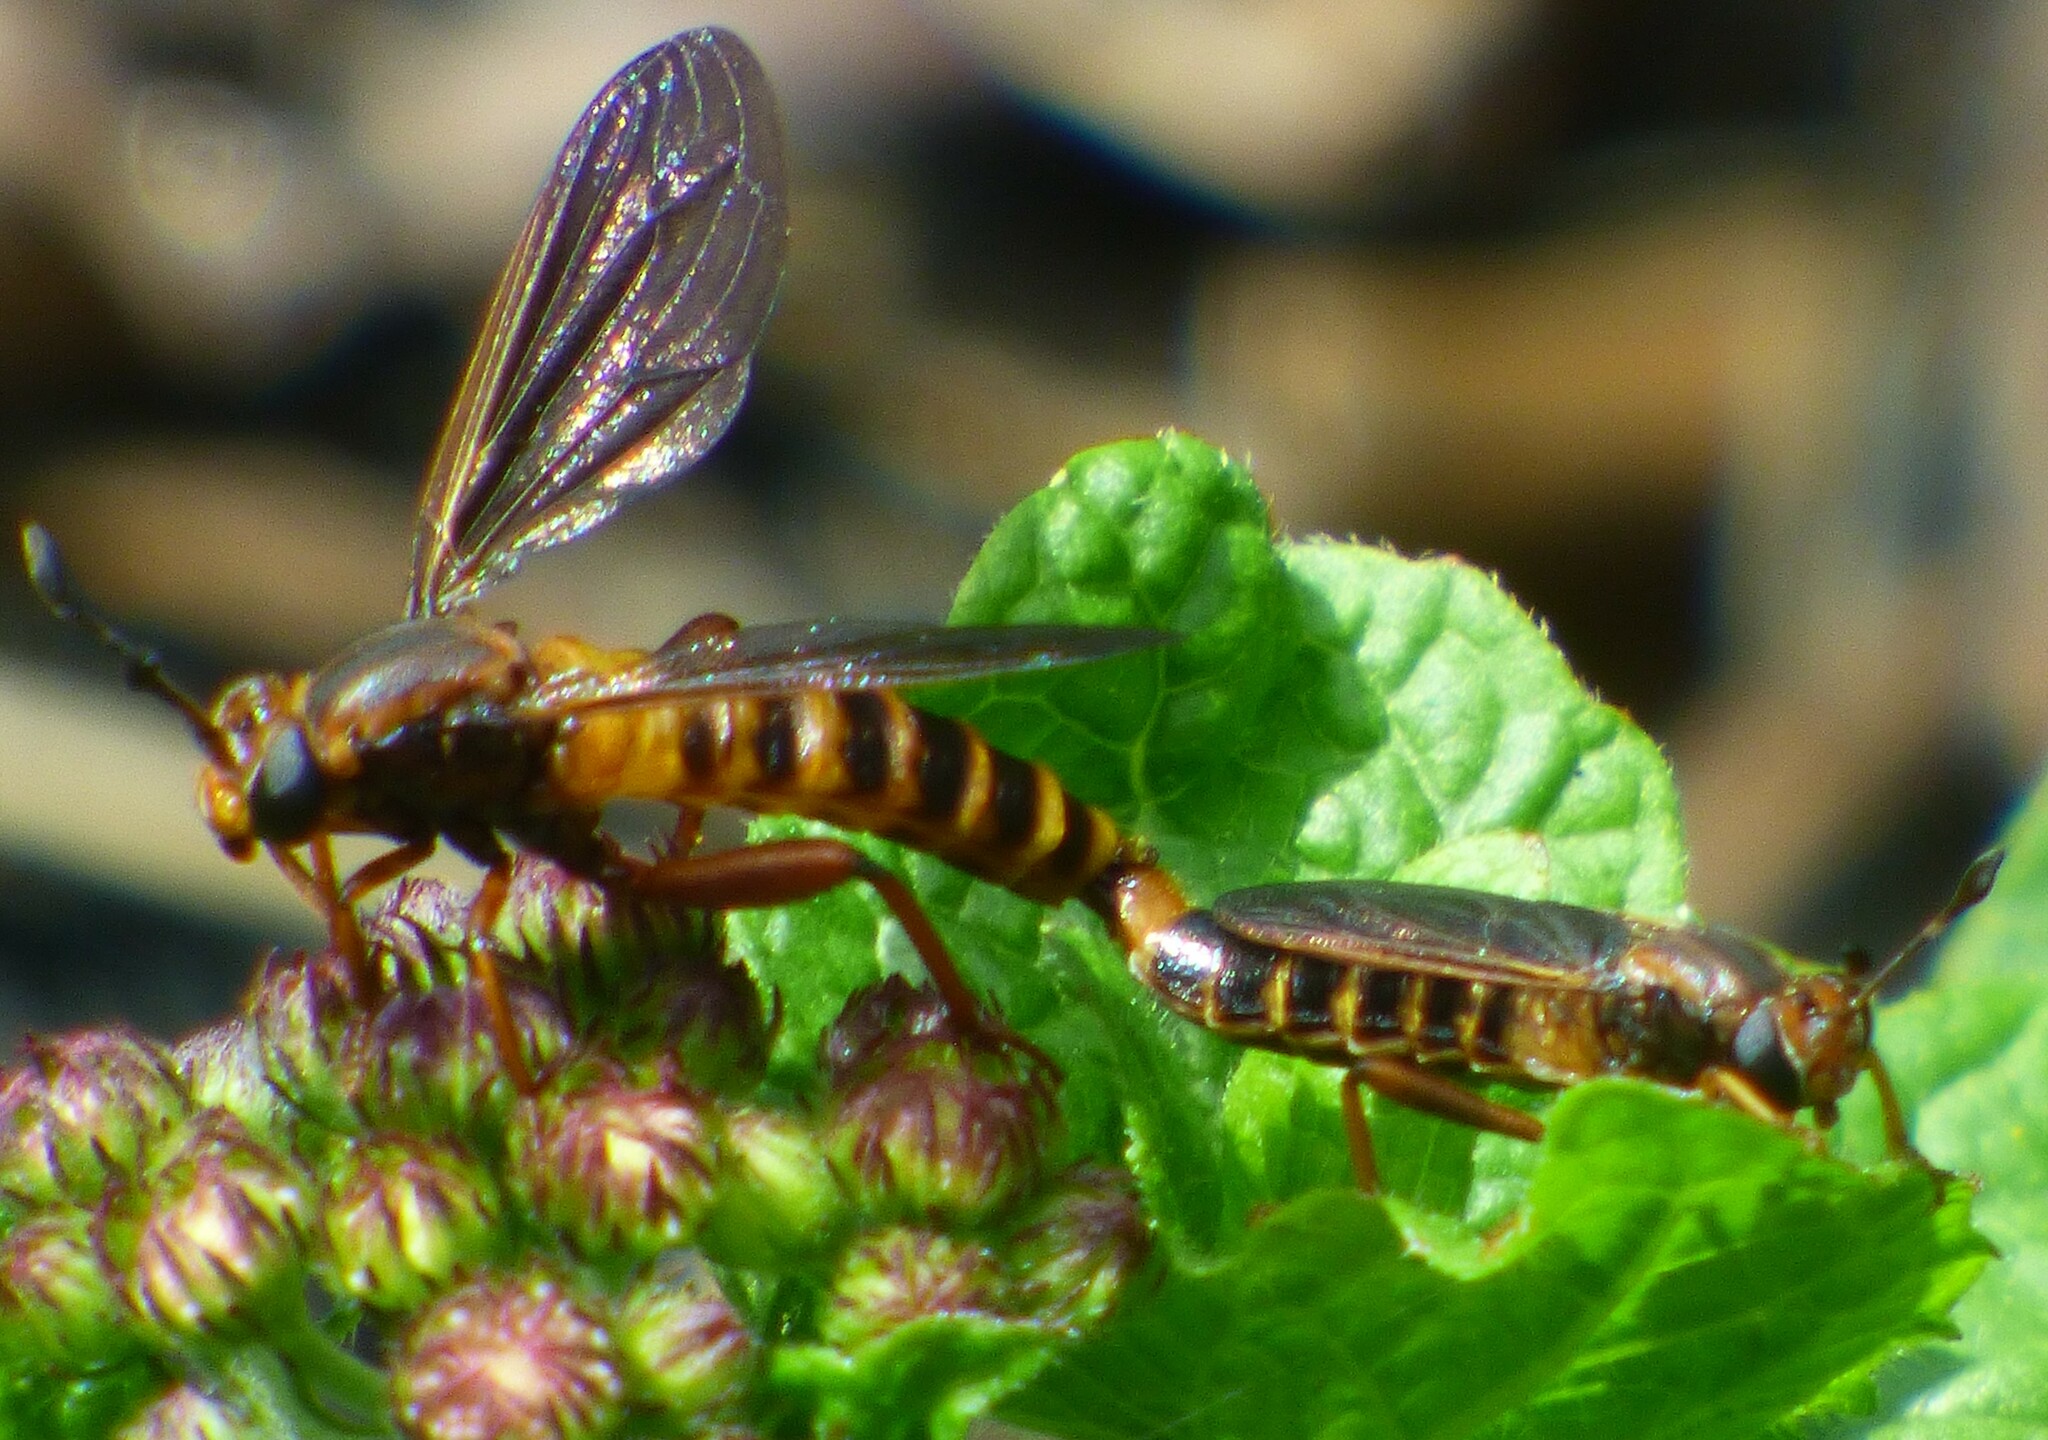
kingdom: Animalia
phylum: Arthropoda
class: Insecta
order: Diptera
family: Mydidae
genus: Phyllomydas
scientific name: Phyllomydas parvulus
